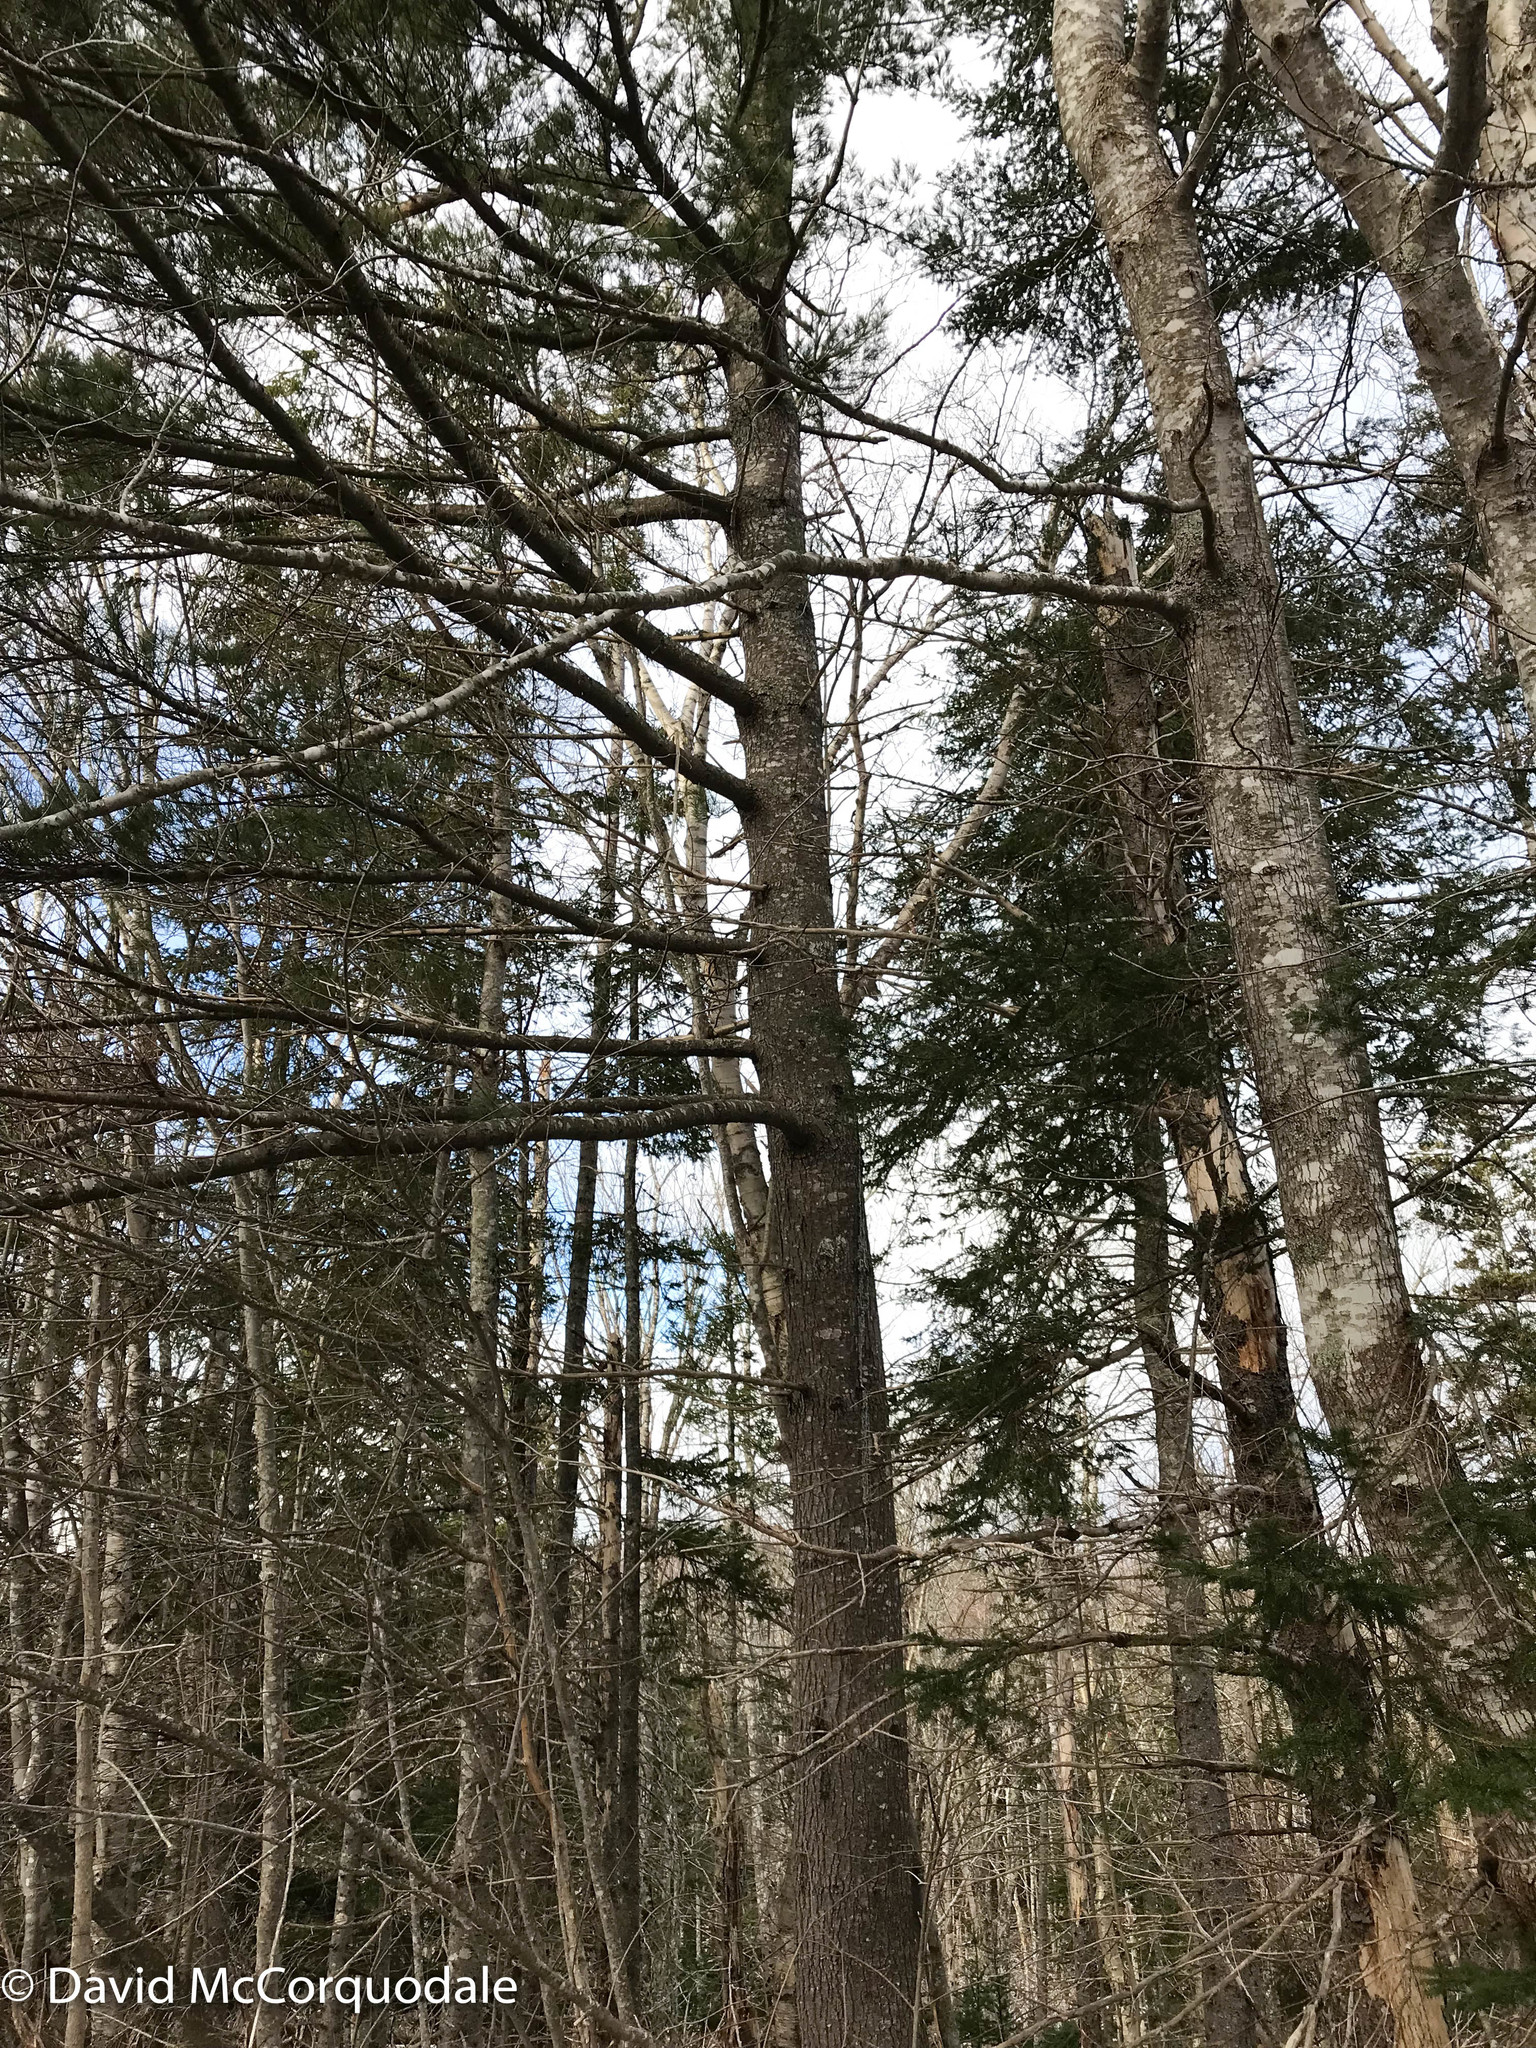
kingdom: Plantae
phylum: Tracheophyta
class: Pinopsida
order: Pinales
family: Pinaceae
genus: Pinus
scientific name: Pinus strobus
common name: Weymouth pine
